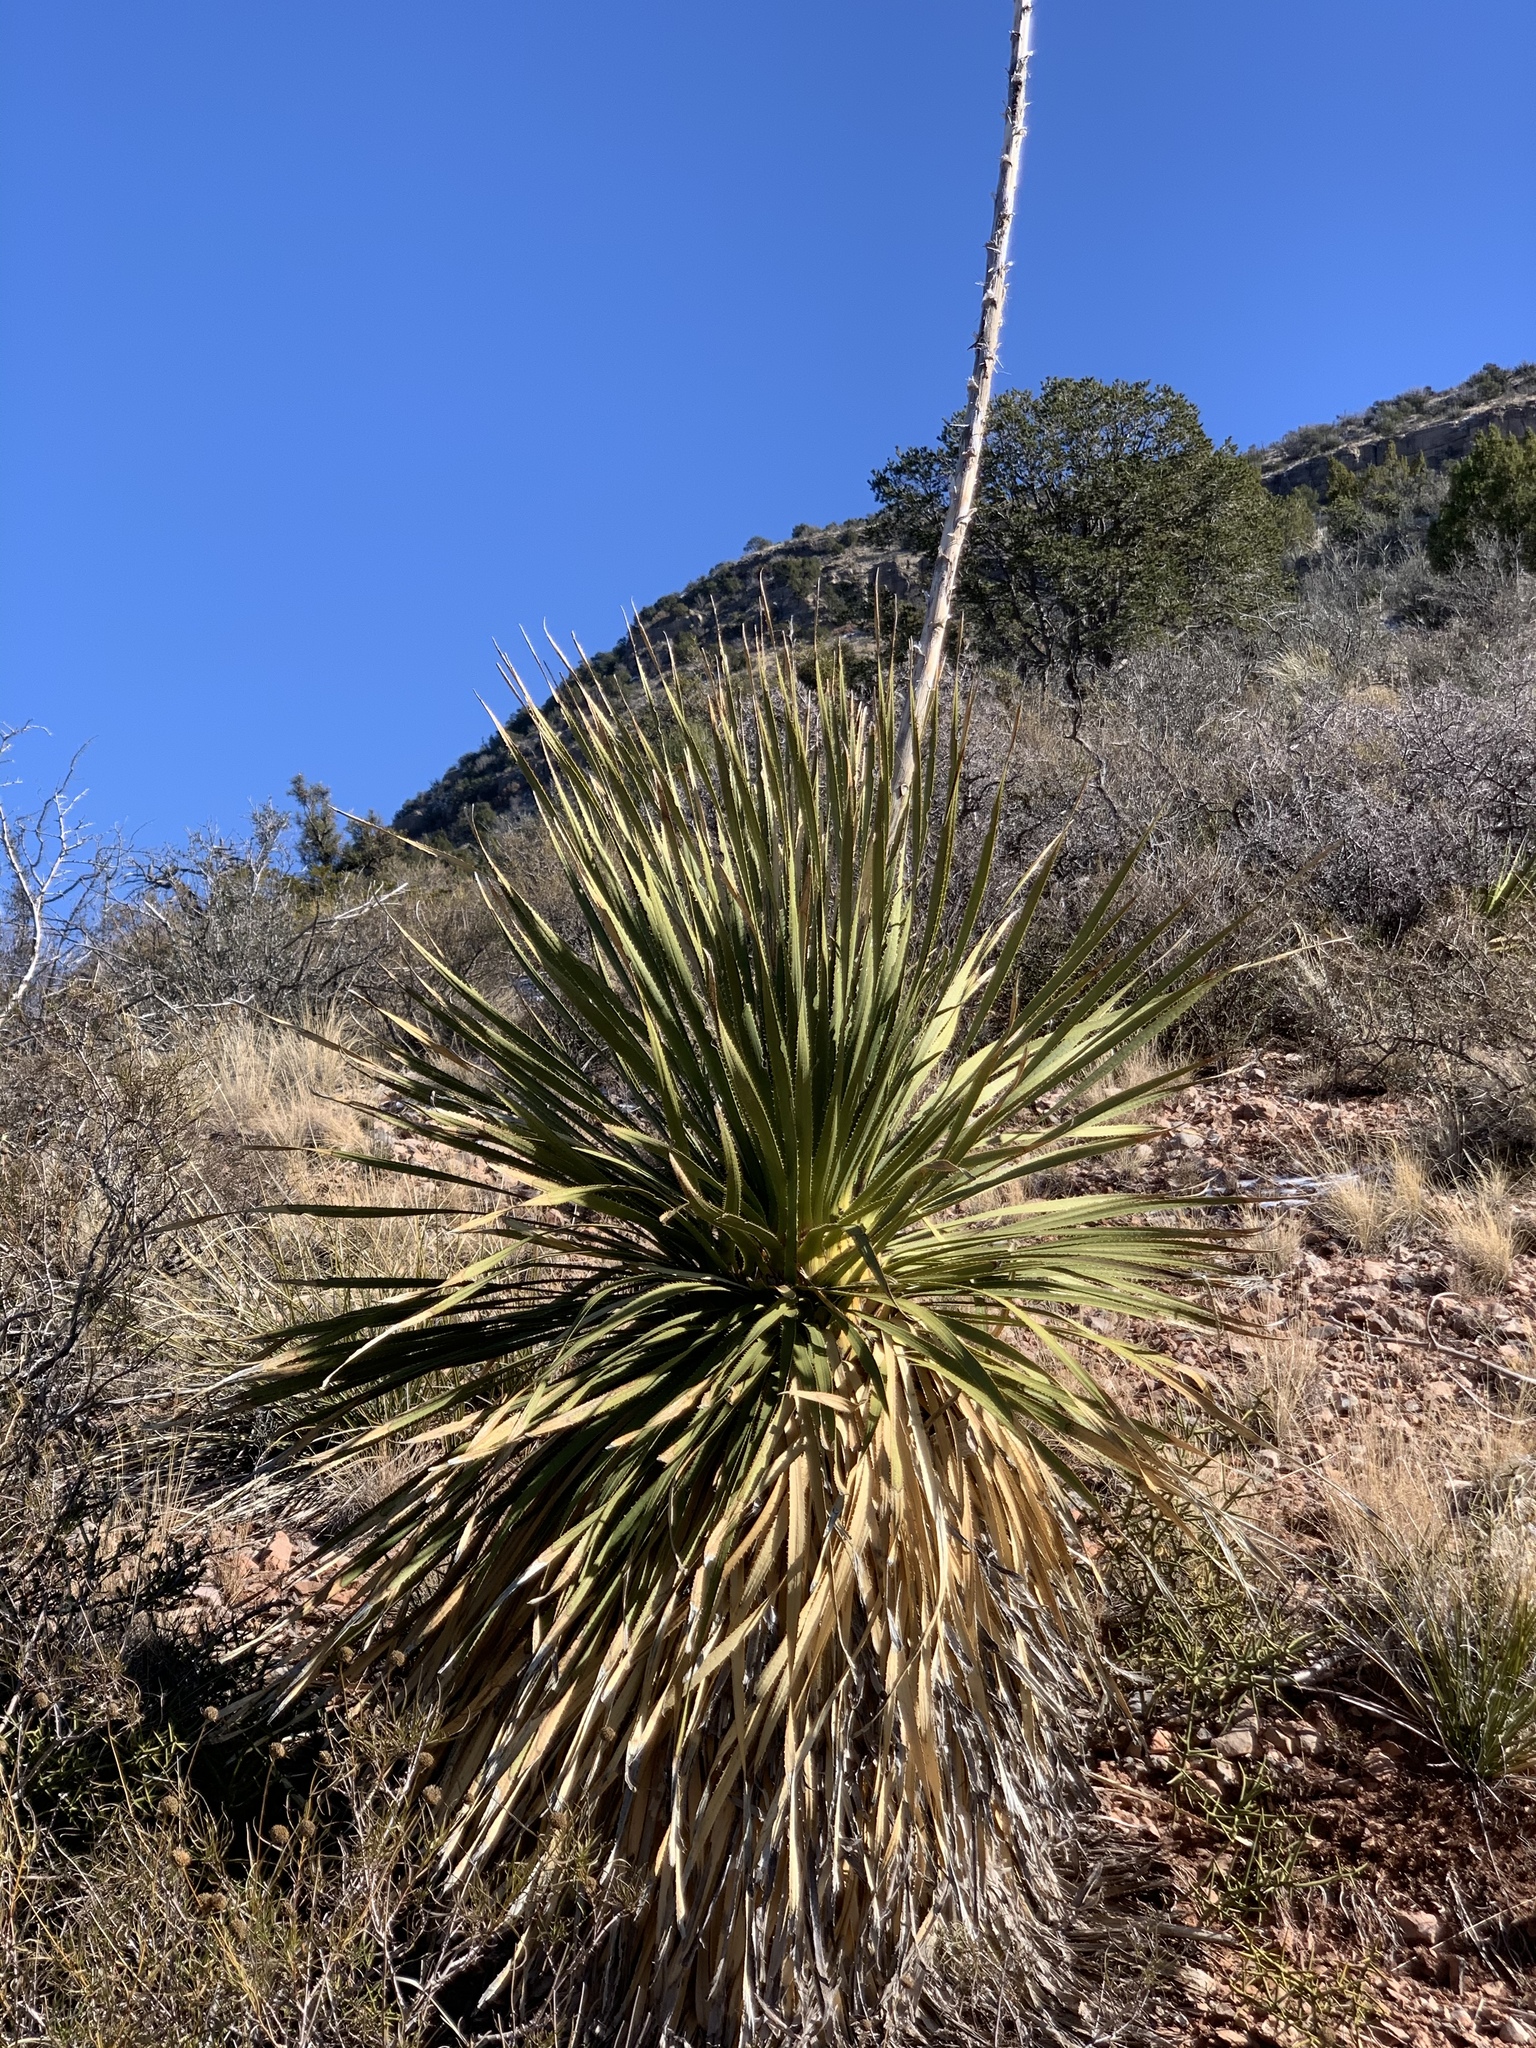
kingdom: Plantae
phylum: Tracheophyta
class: Liliopsida
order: Asparagales
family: Asparagaceae
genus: Dasylirion
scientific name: Dasylirion wheeleri
